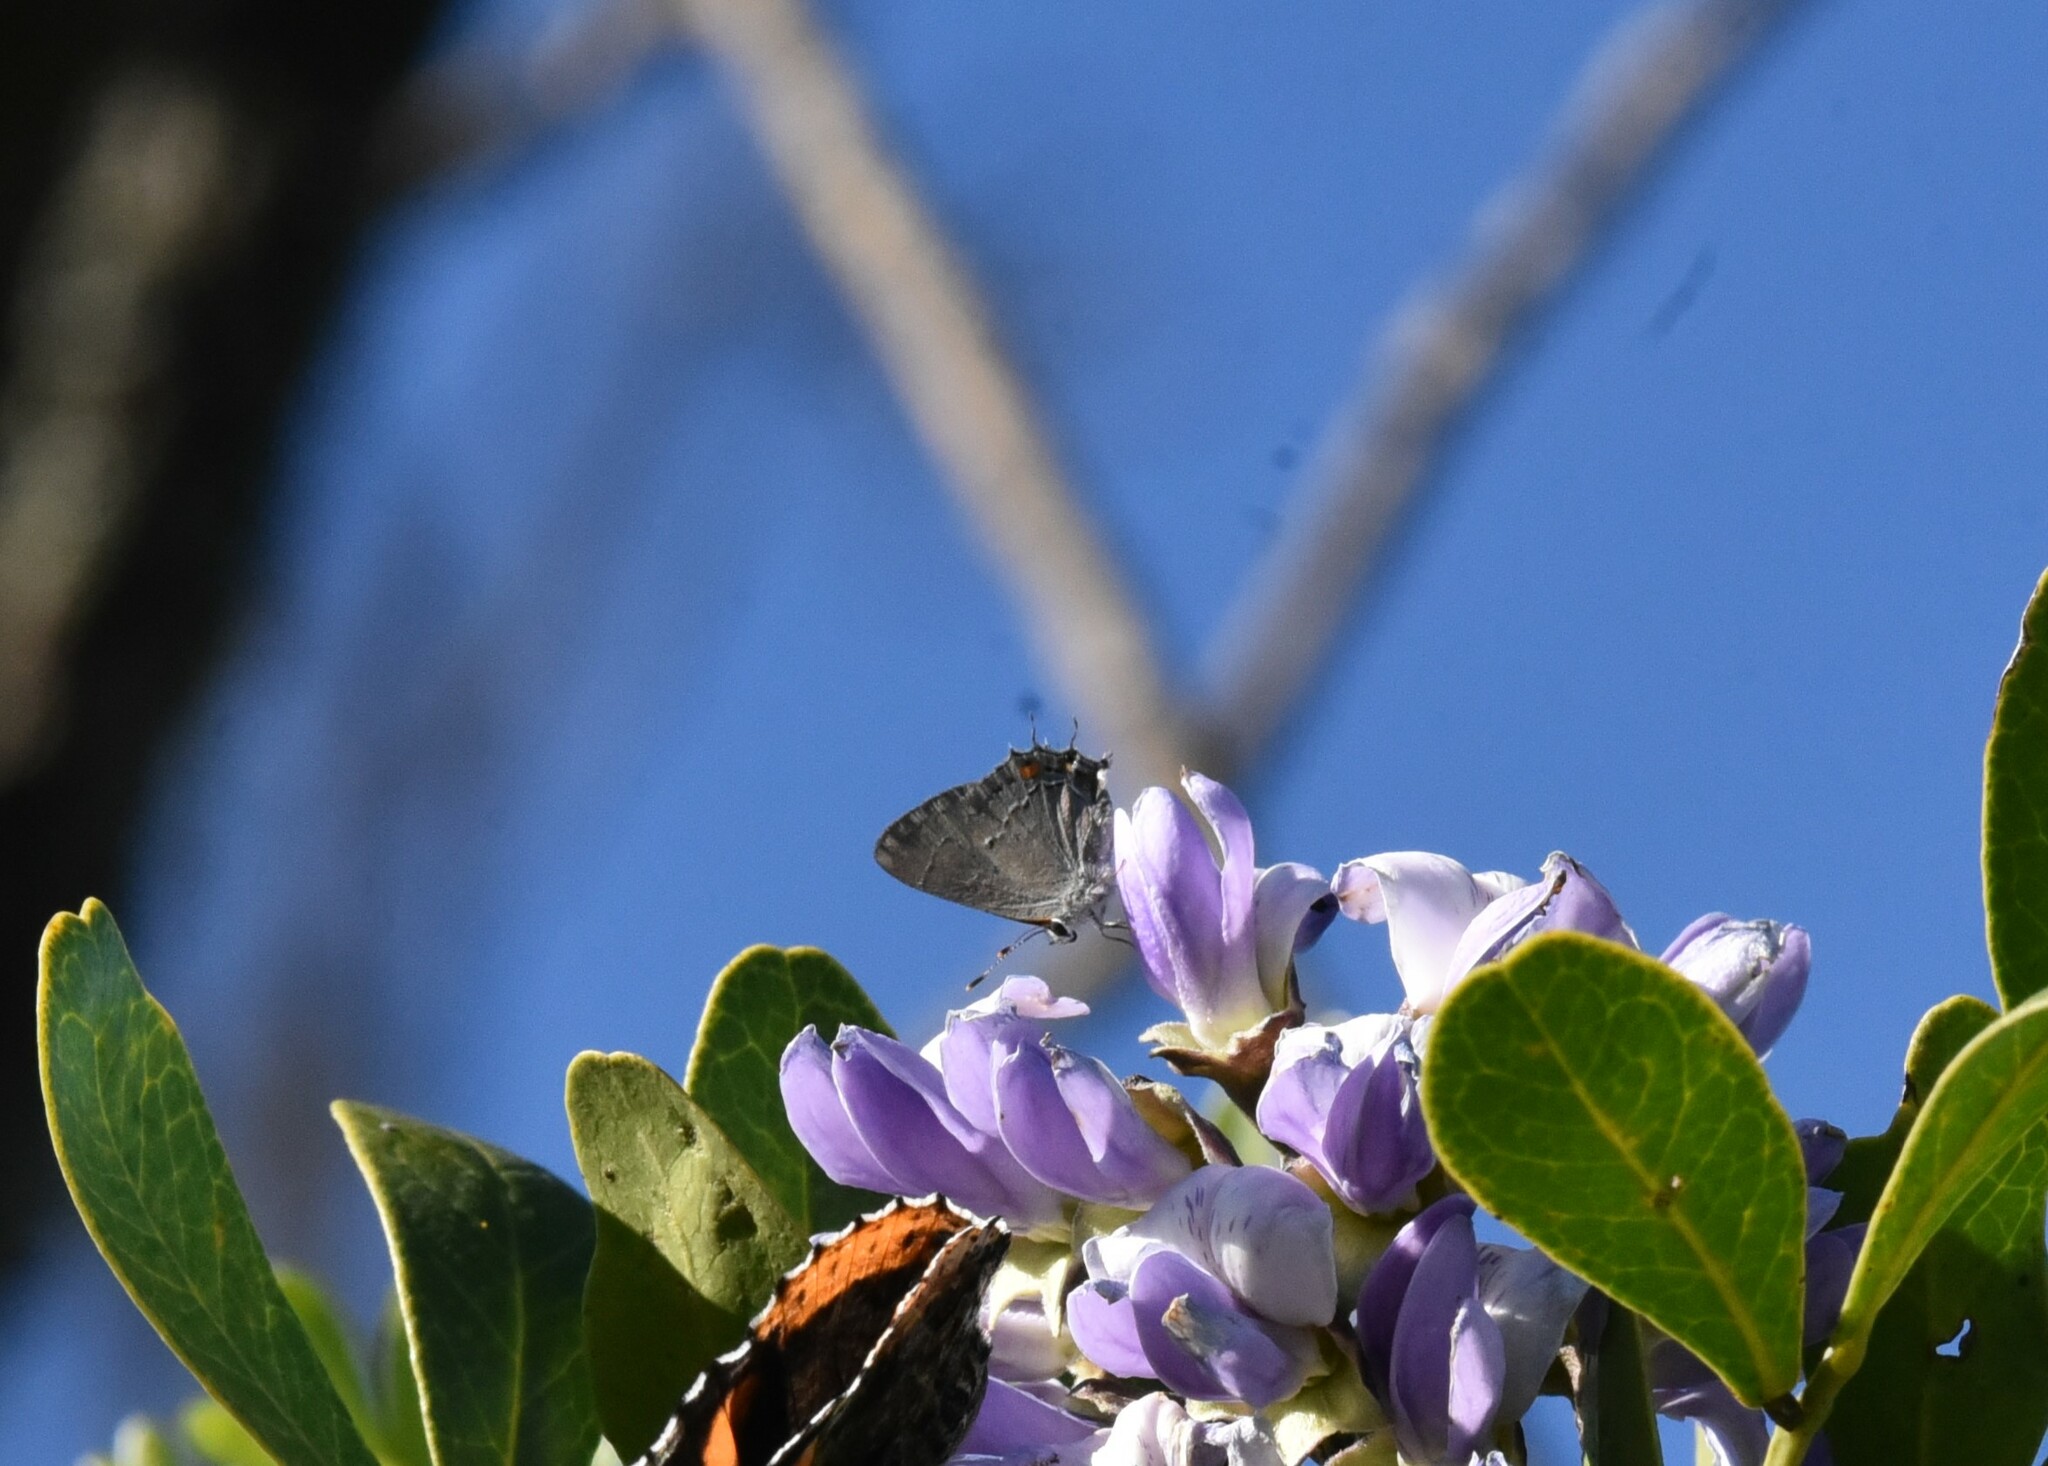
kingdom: Animalia
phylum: Arthropoda
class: Insecta
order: Lepidoptera
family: Lycaenidae
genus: Strymon
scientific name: Strymon melinus
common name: Gray hairstreak
